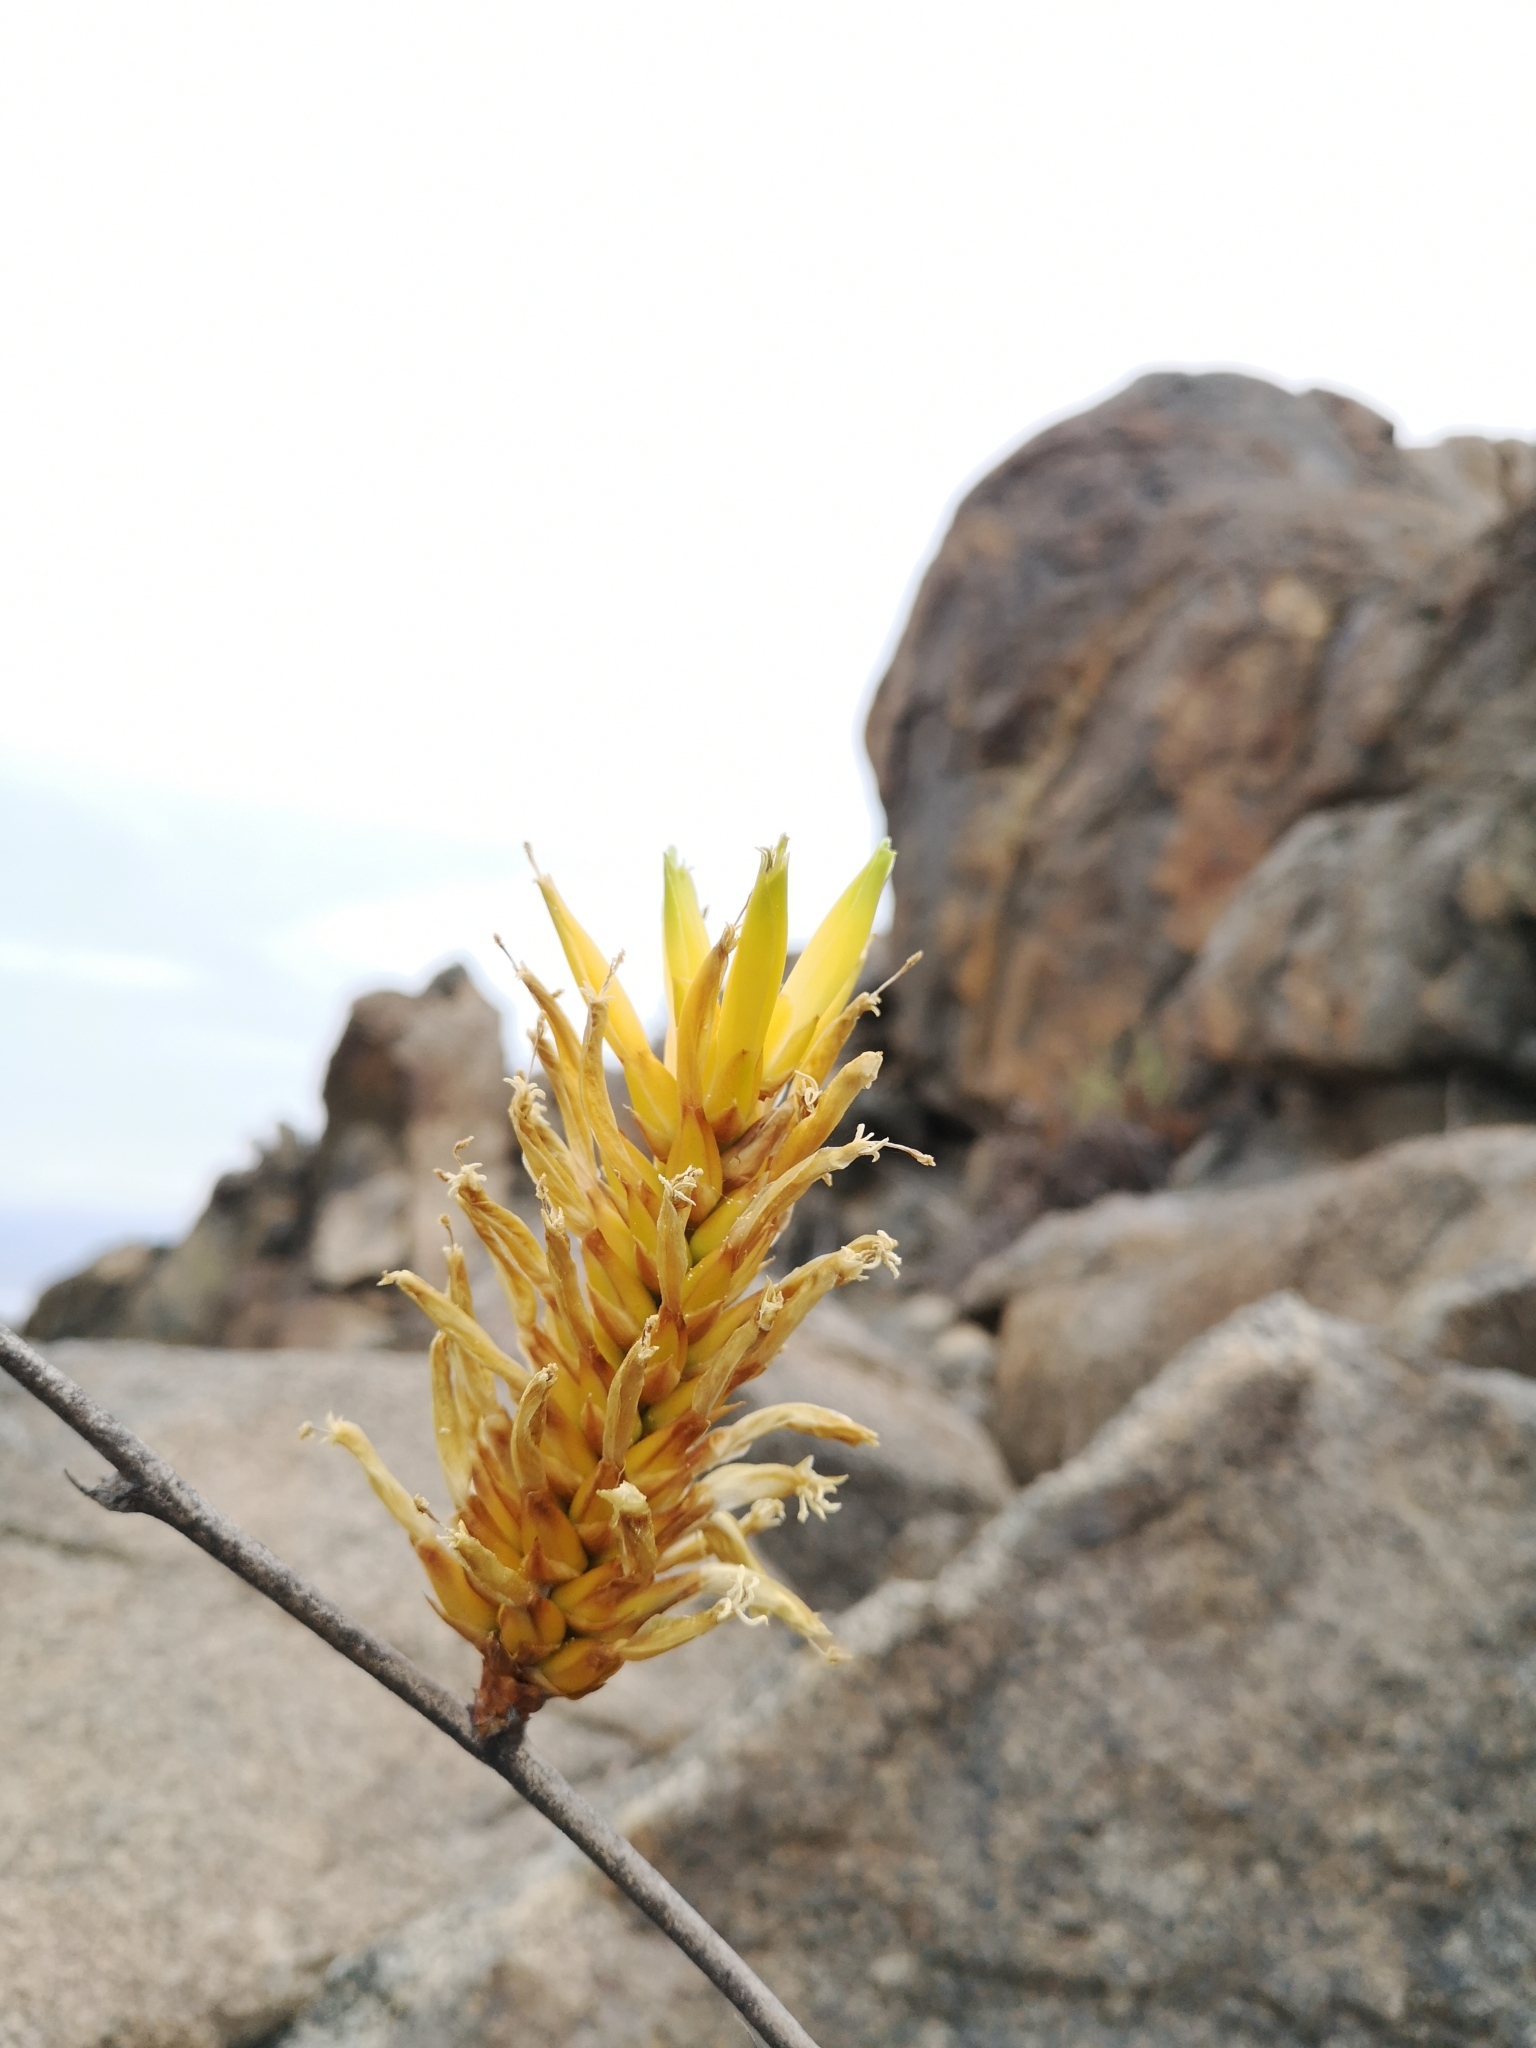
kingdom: Plantae
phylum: Tracheophyta
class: Liliopsida
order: Poales
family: Bromeliaceae
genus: Deuterocohnia
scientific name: Deuterocohnia chrysantha
